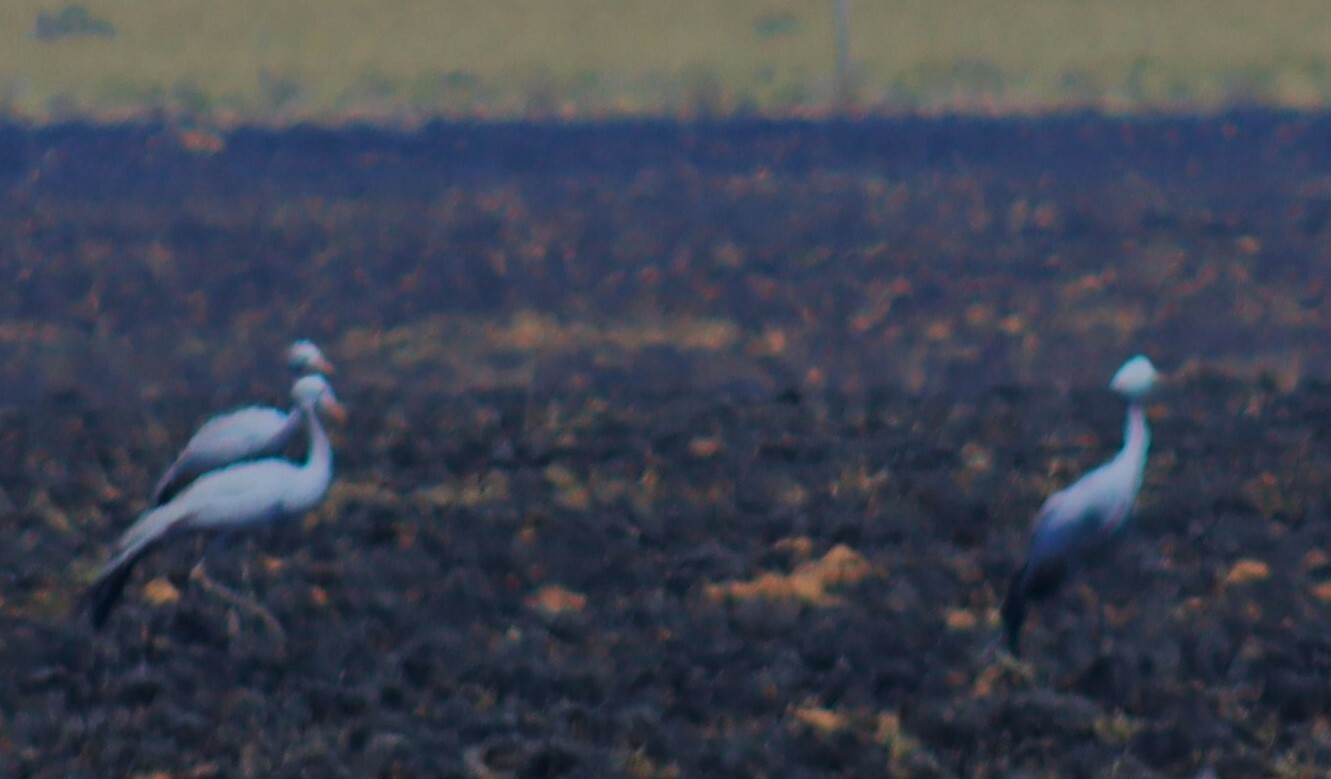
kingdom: Animalia
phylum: Chordata
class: Aves
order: Gruiformes
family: Gruidae
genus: Anthropoides
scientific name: Anthropoides paradiseus
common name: Blue crane
